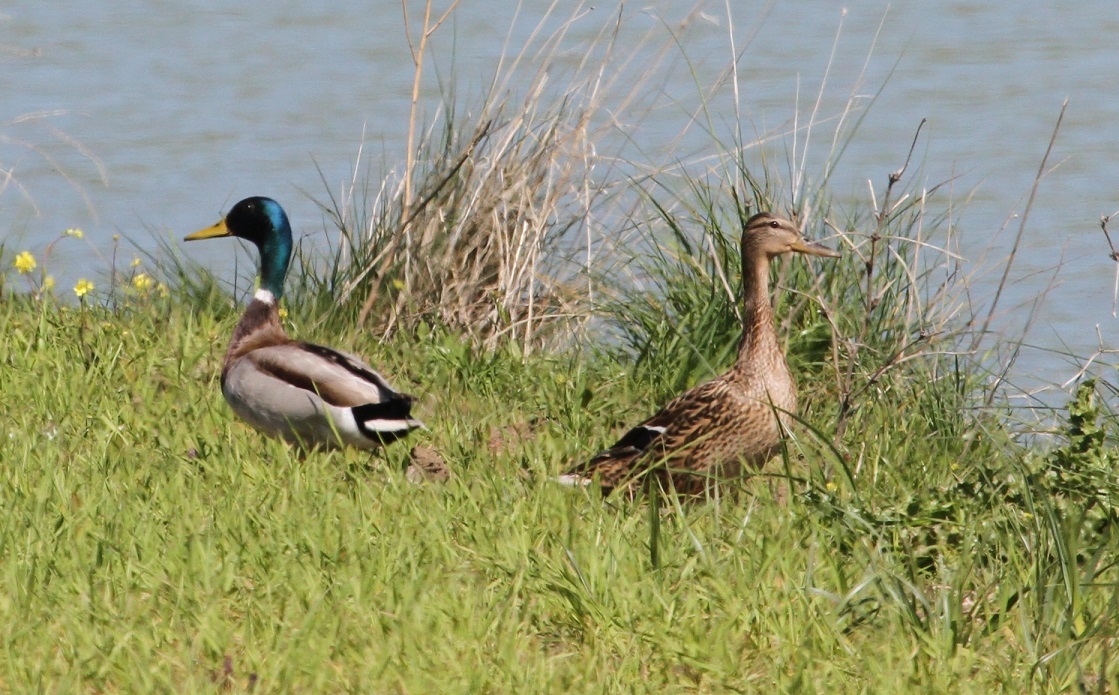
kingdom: Animalia
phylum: Chordata
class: Aves
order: Anseriformes
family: Anatidae
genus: Anas
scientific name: Anas platyrhynchos
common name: Mallard
